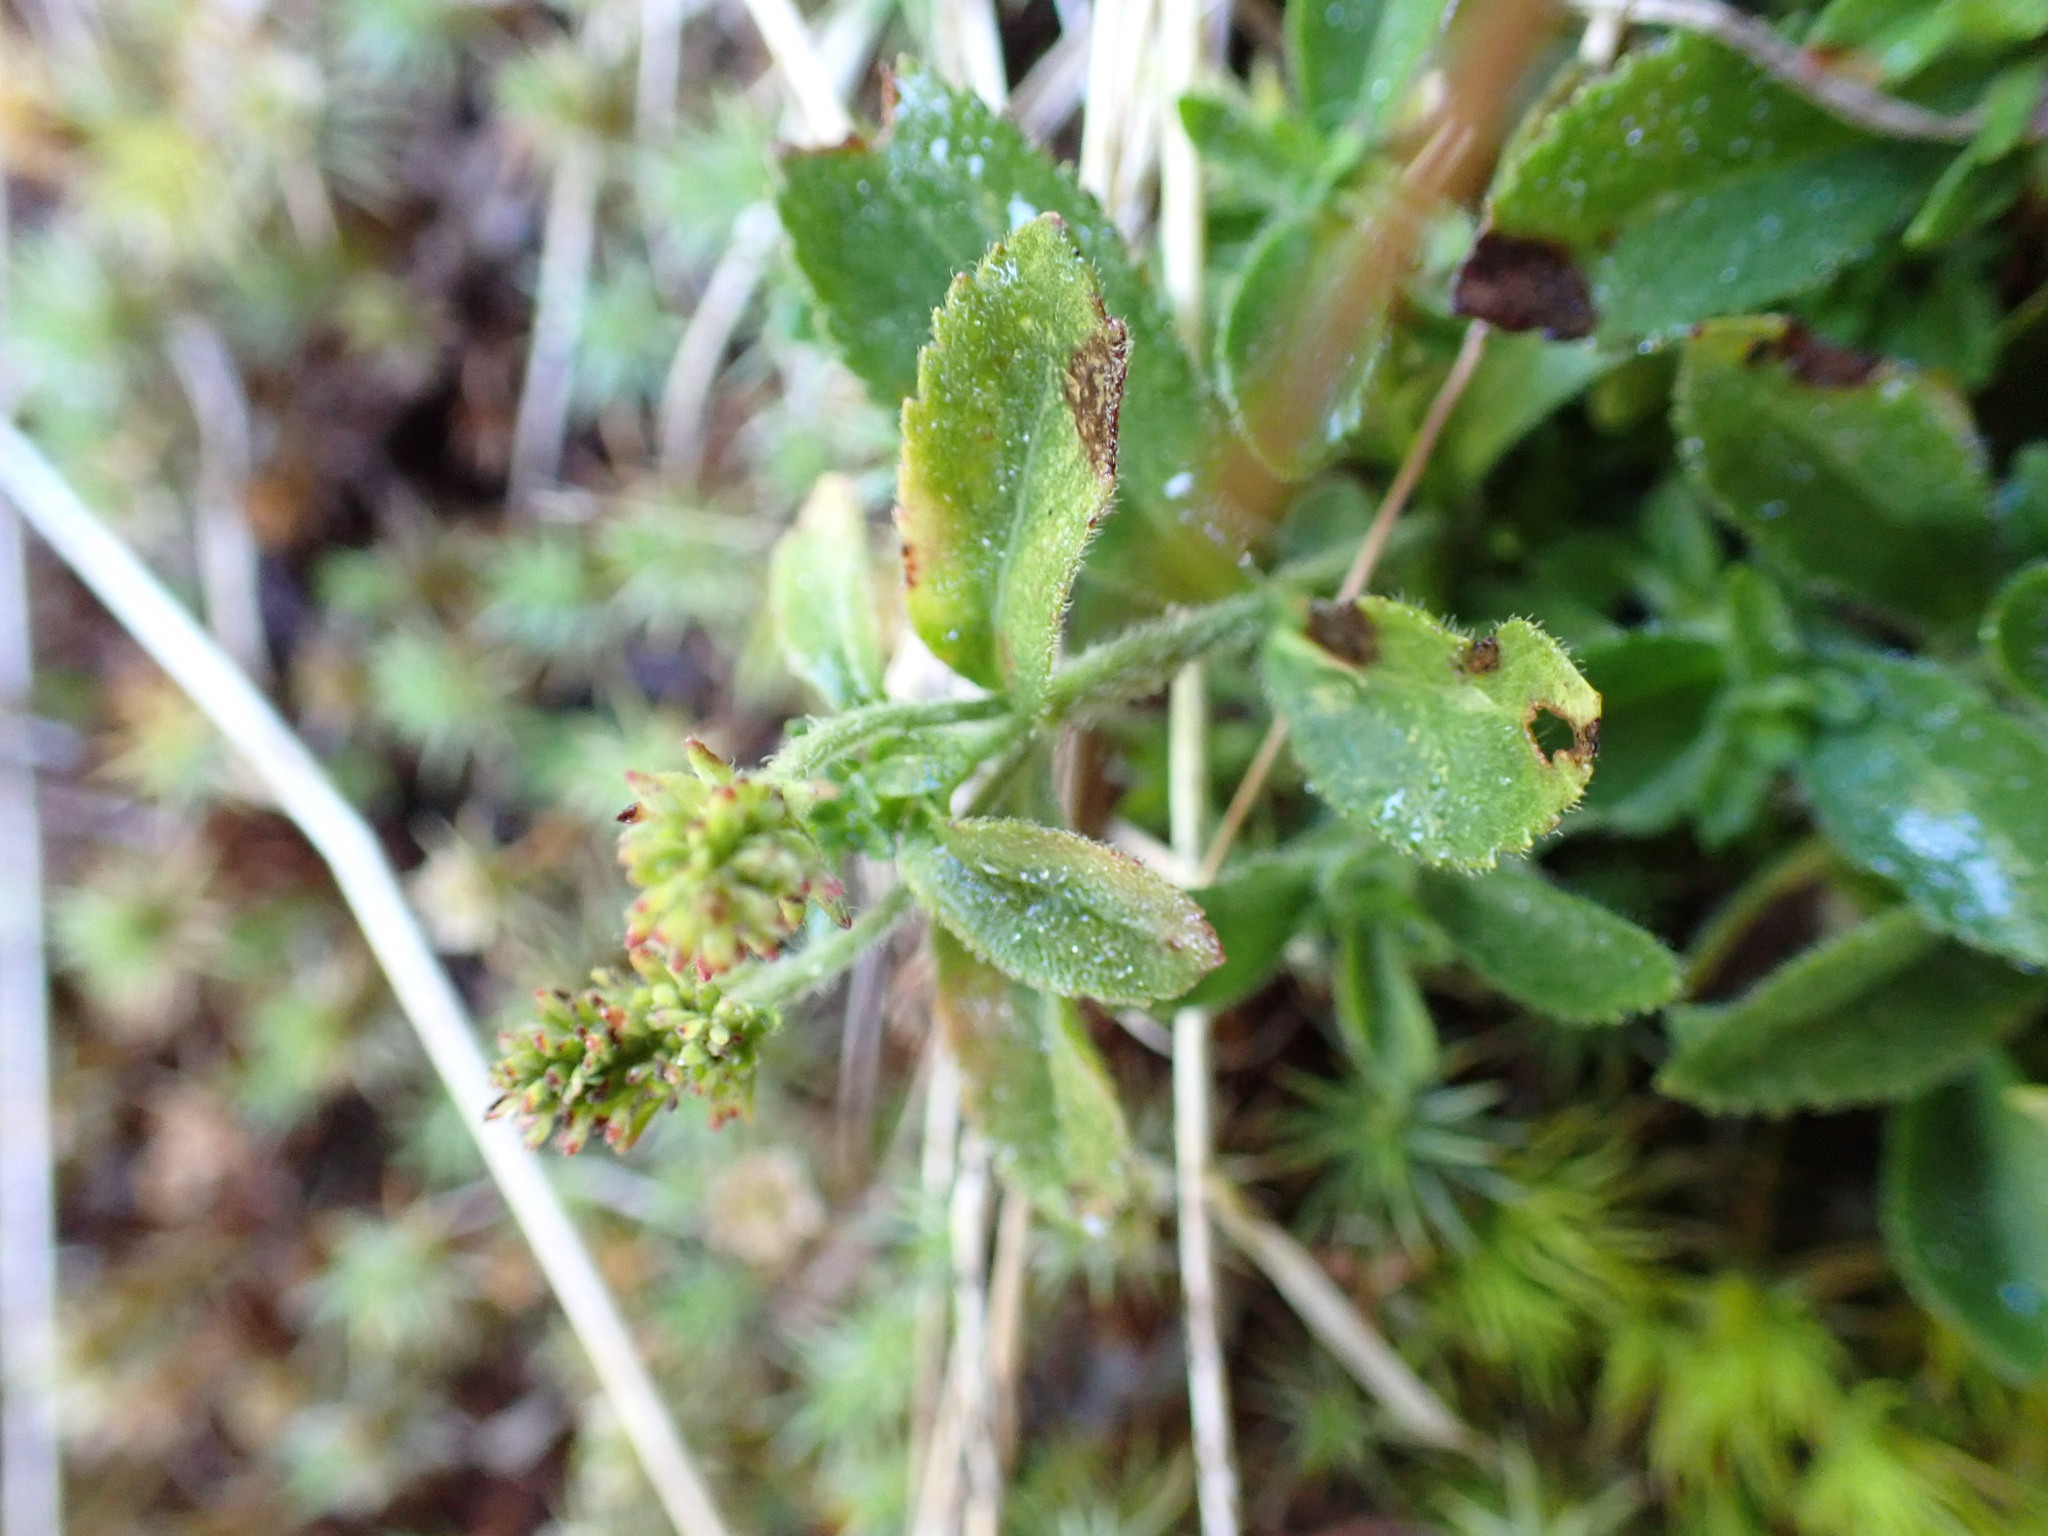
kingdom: Plantae
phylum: Tracheophyta
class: Magnoliopsida
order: Lamiales
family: Plantaginaceae
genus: Veronica
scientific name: Veronica officinalis
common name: Common speedwell
